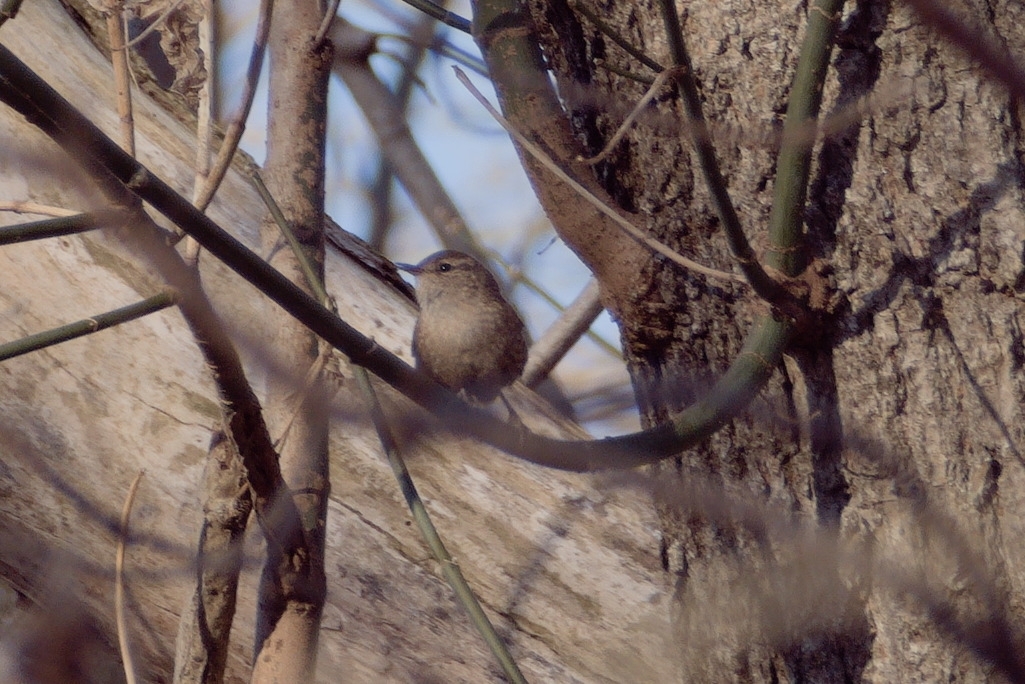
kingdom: Animalia
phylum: Chordata
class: Aves
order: Passeriformes
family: Troglodytidae
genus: Troglodytes
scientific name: Troglodytes hiemalis
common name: Winter wren
